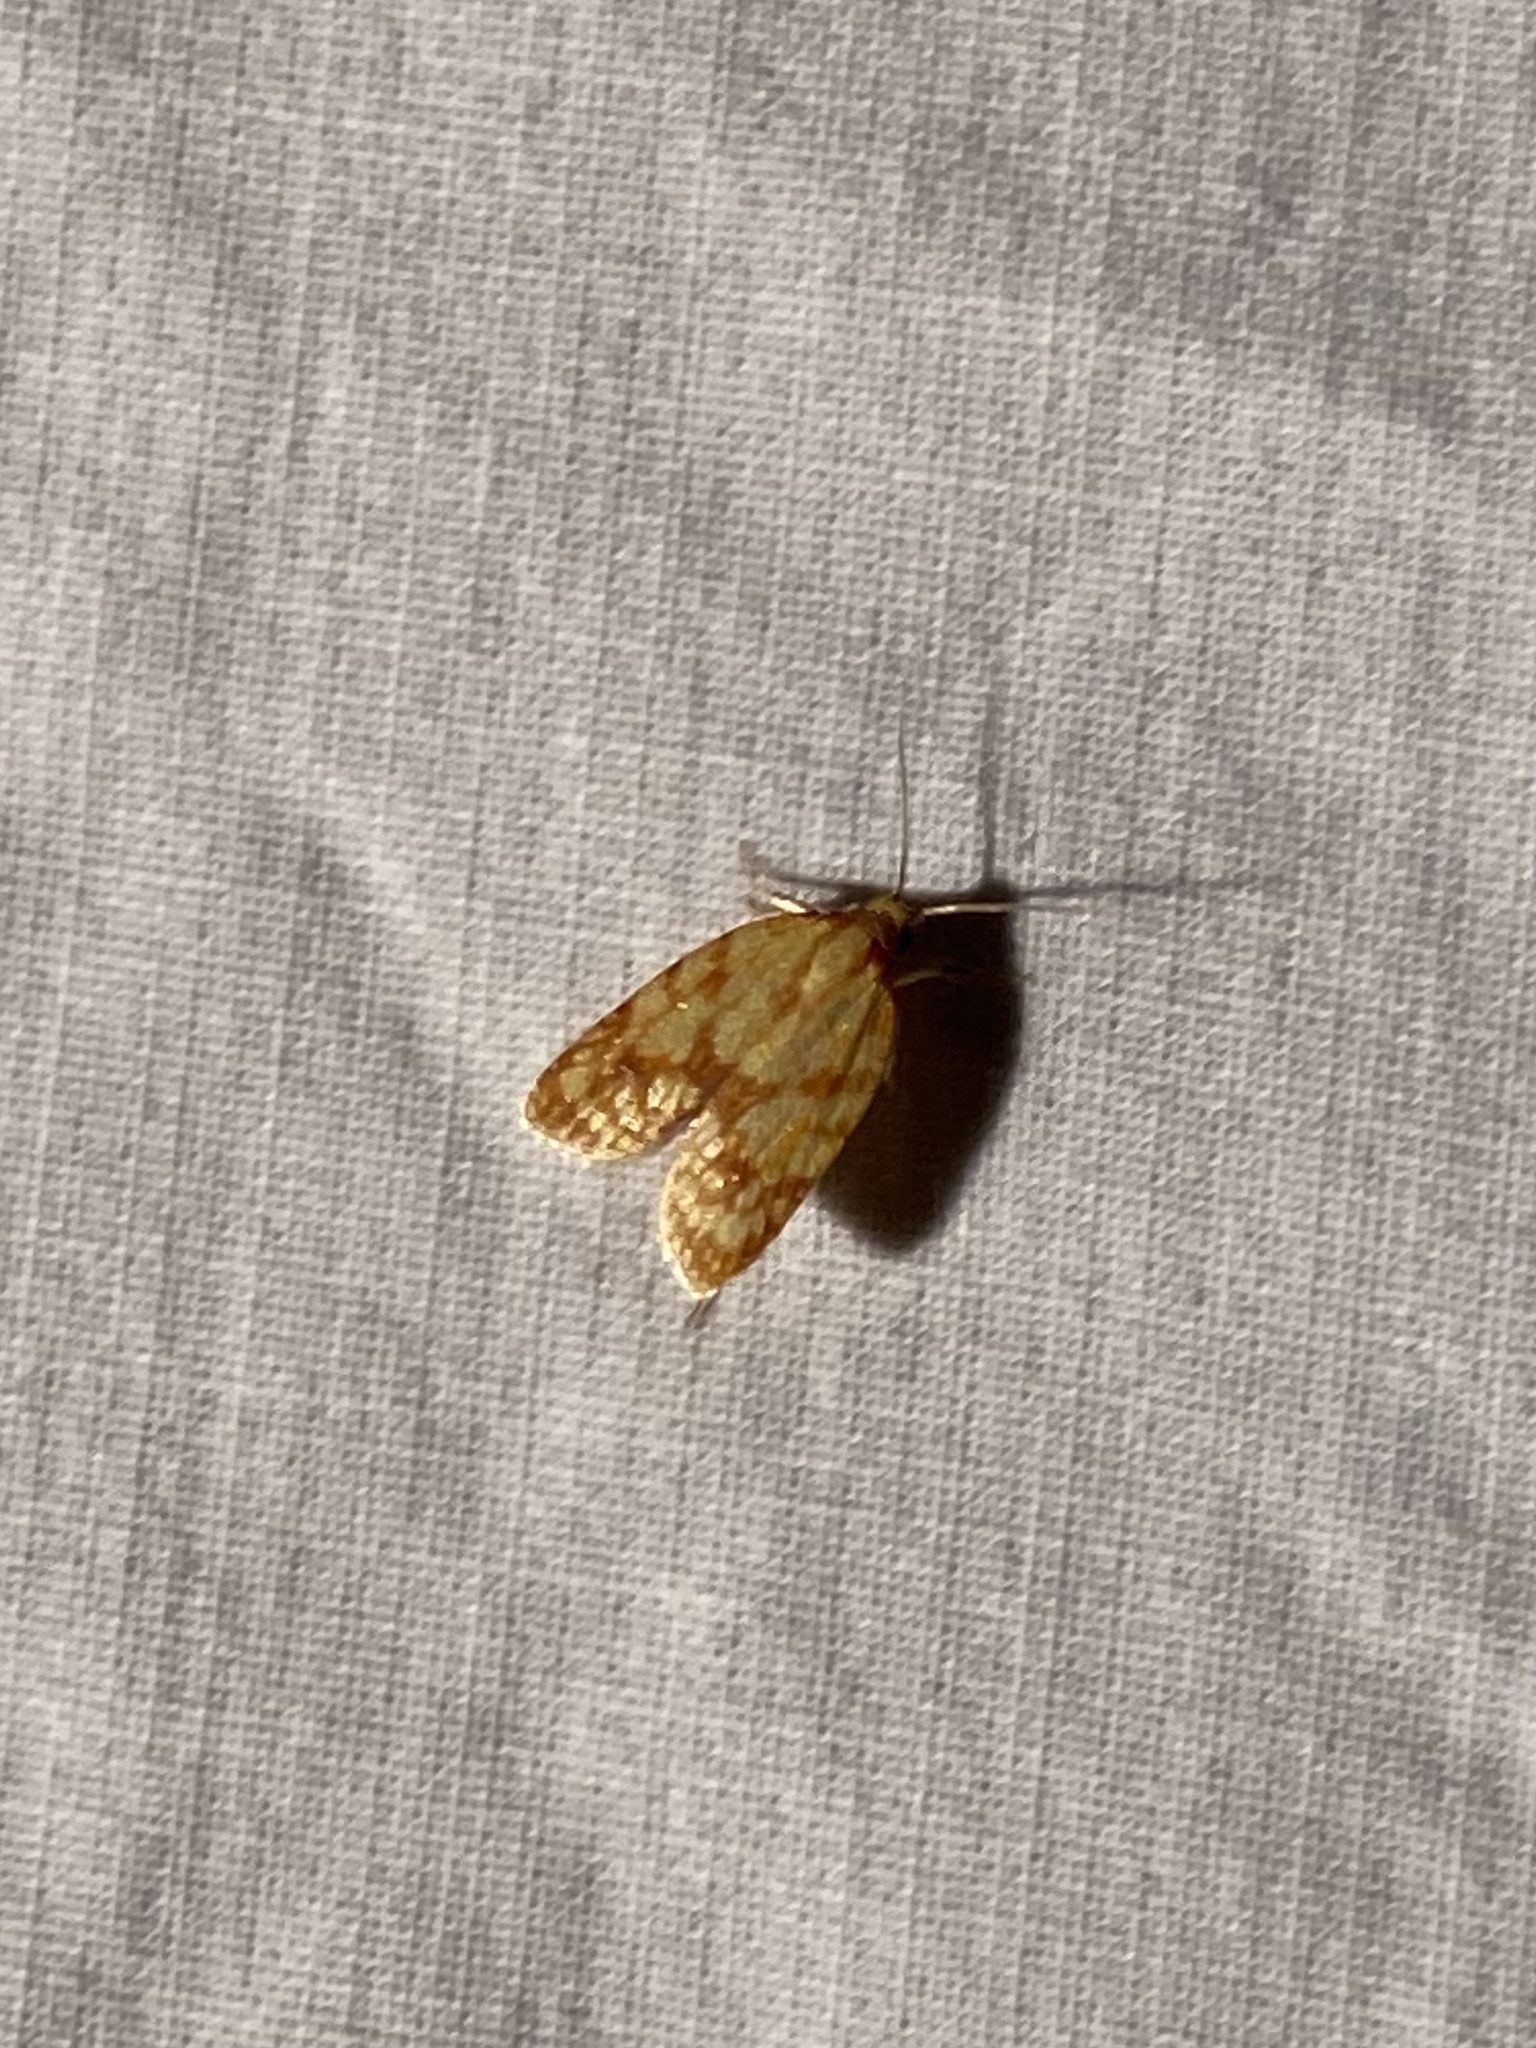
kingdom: Animalia
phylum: Arthropoda
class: Insecta
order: Lepidoptera
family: Tortricidae
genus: Sparganothis
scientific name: Sparganothis sulfureana
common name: Sparganothis fruitworm moth
